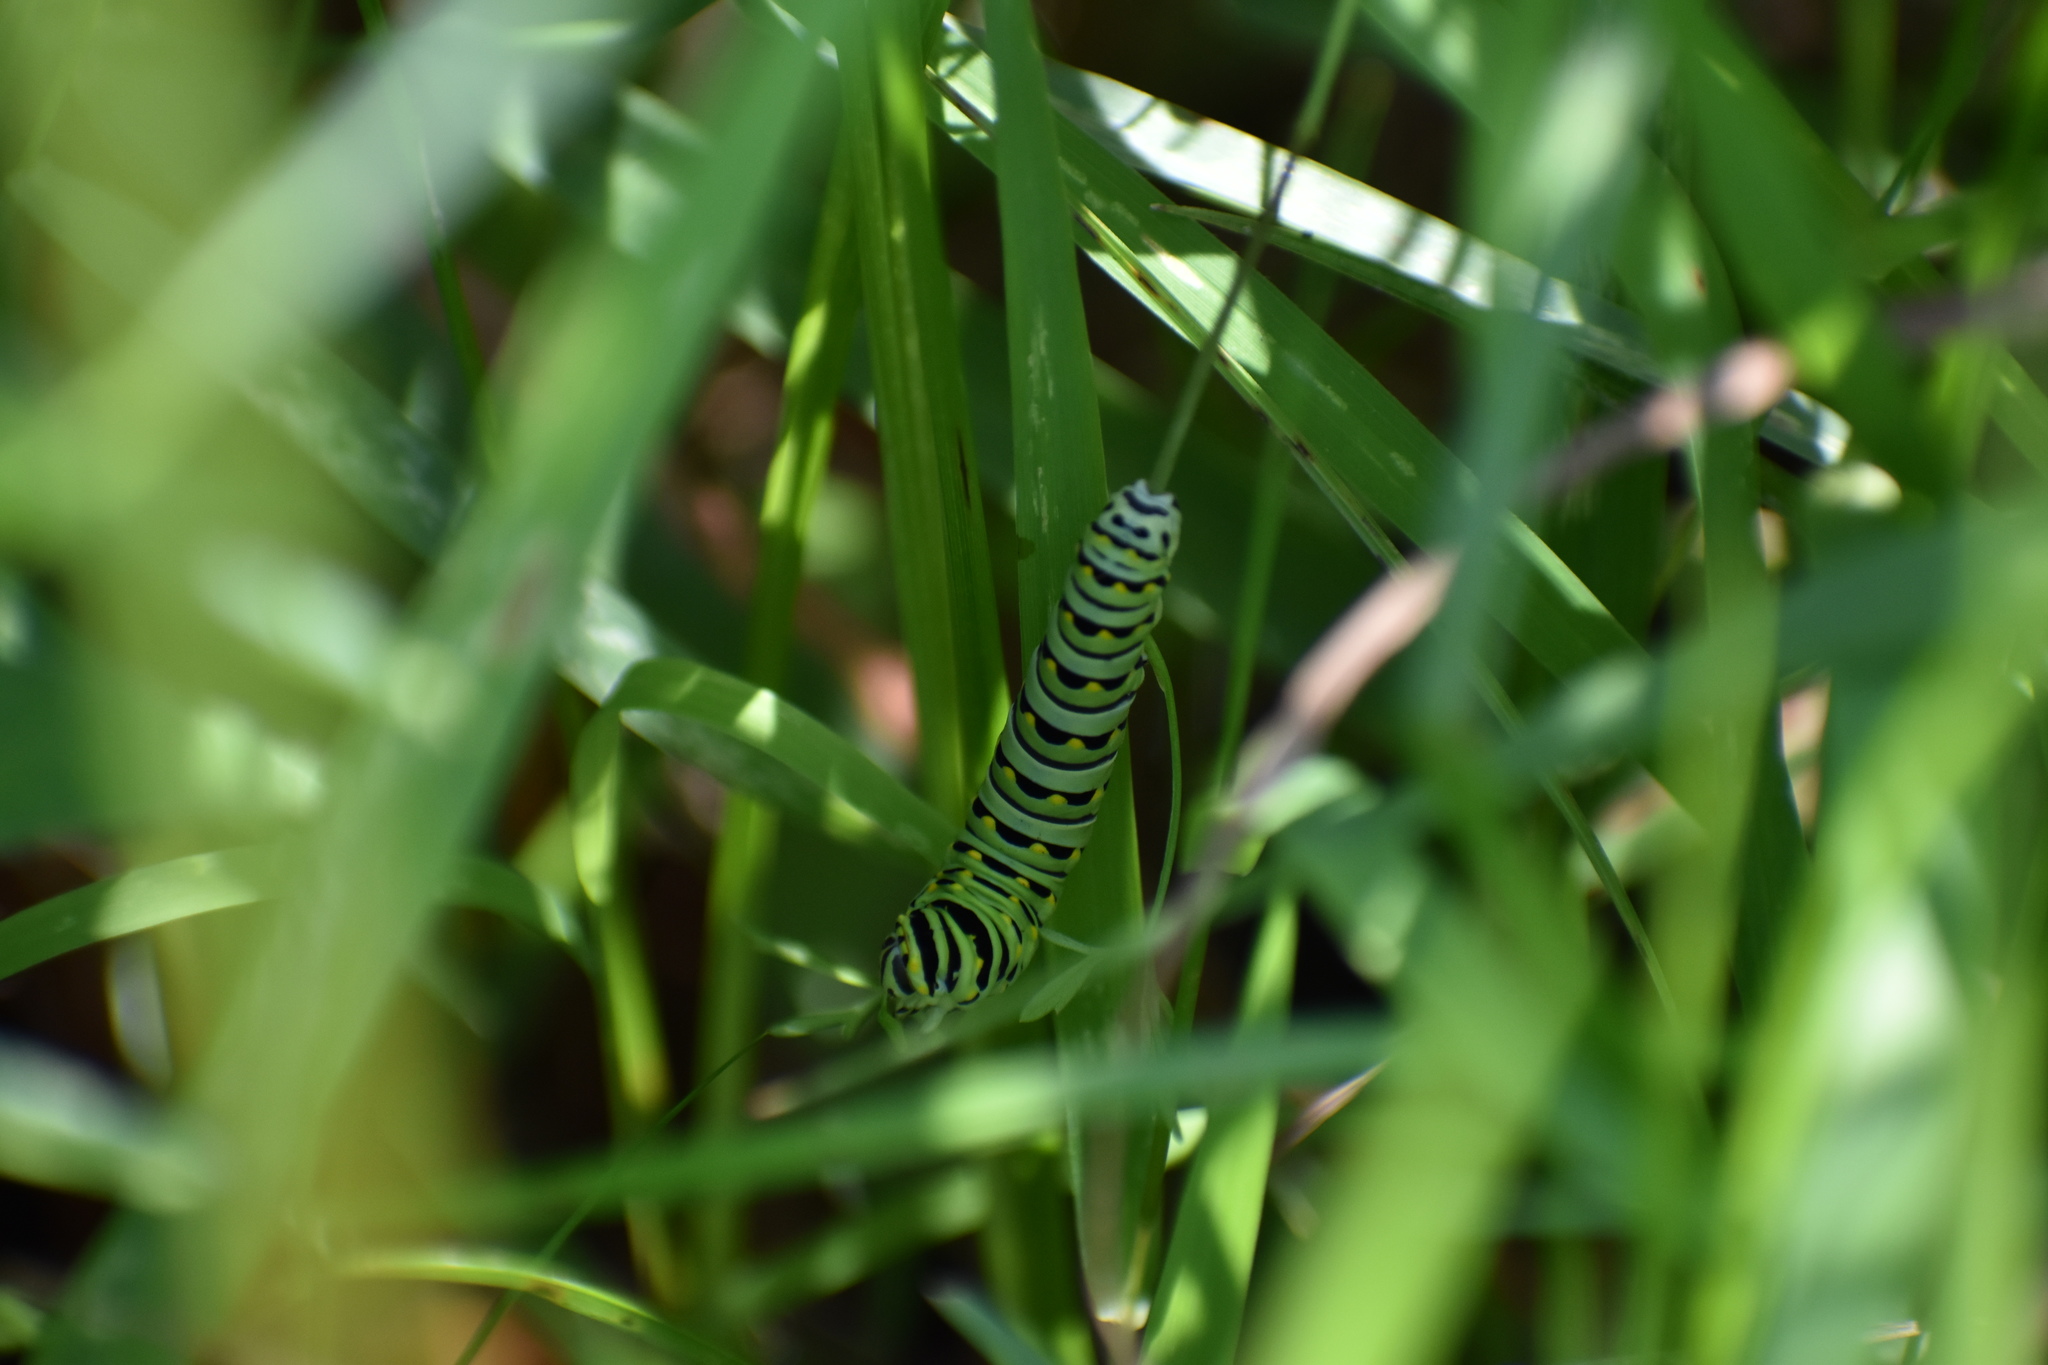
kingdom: Animalia
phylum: Arthropoda
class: Insecta
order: Lepidoptera
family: Papilionidae
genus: Papilio
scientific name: Papilio polyxenes
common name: Black swallowtail
